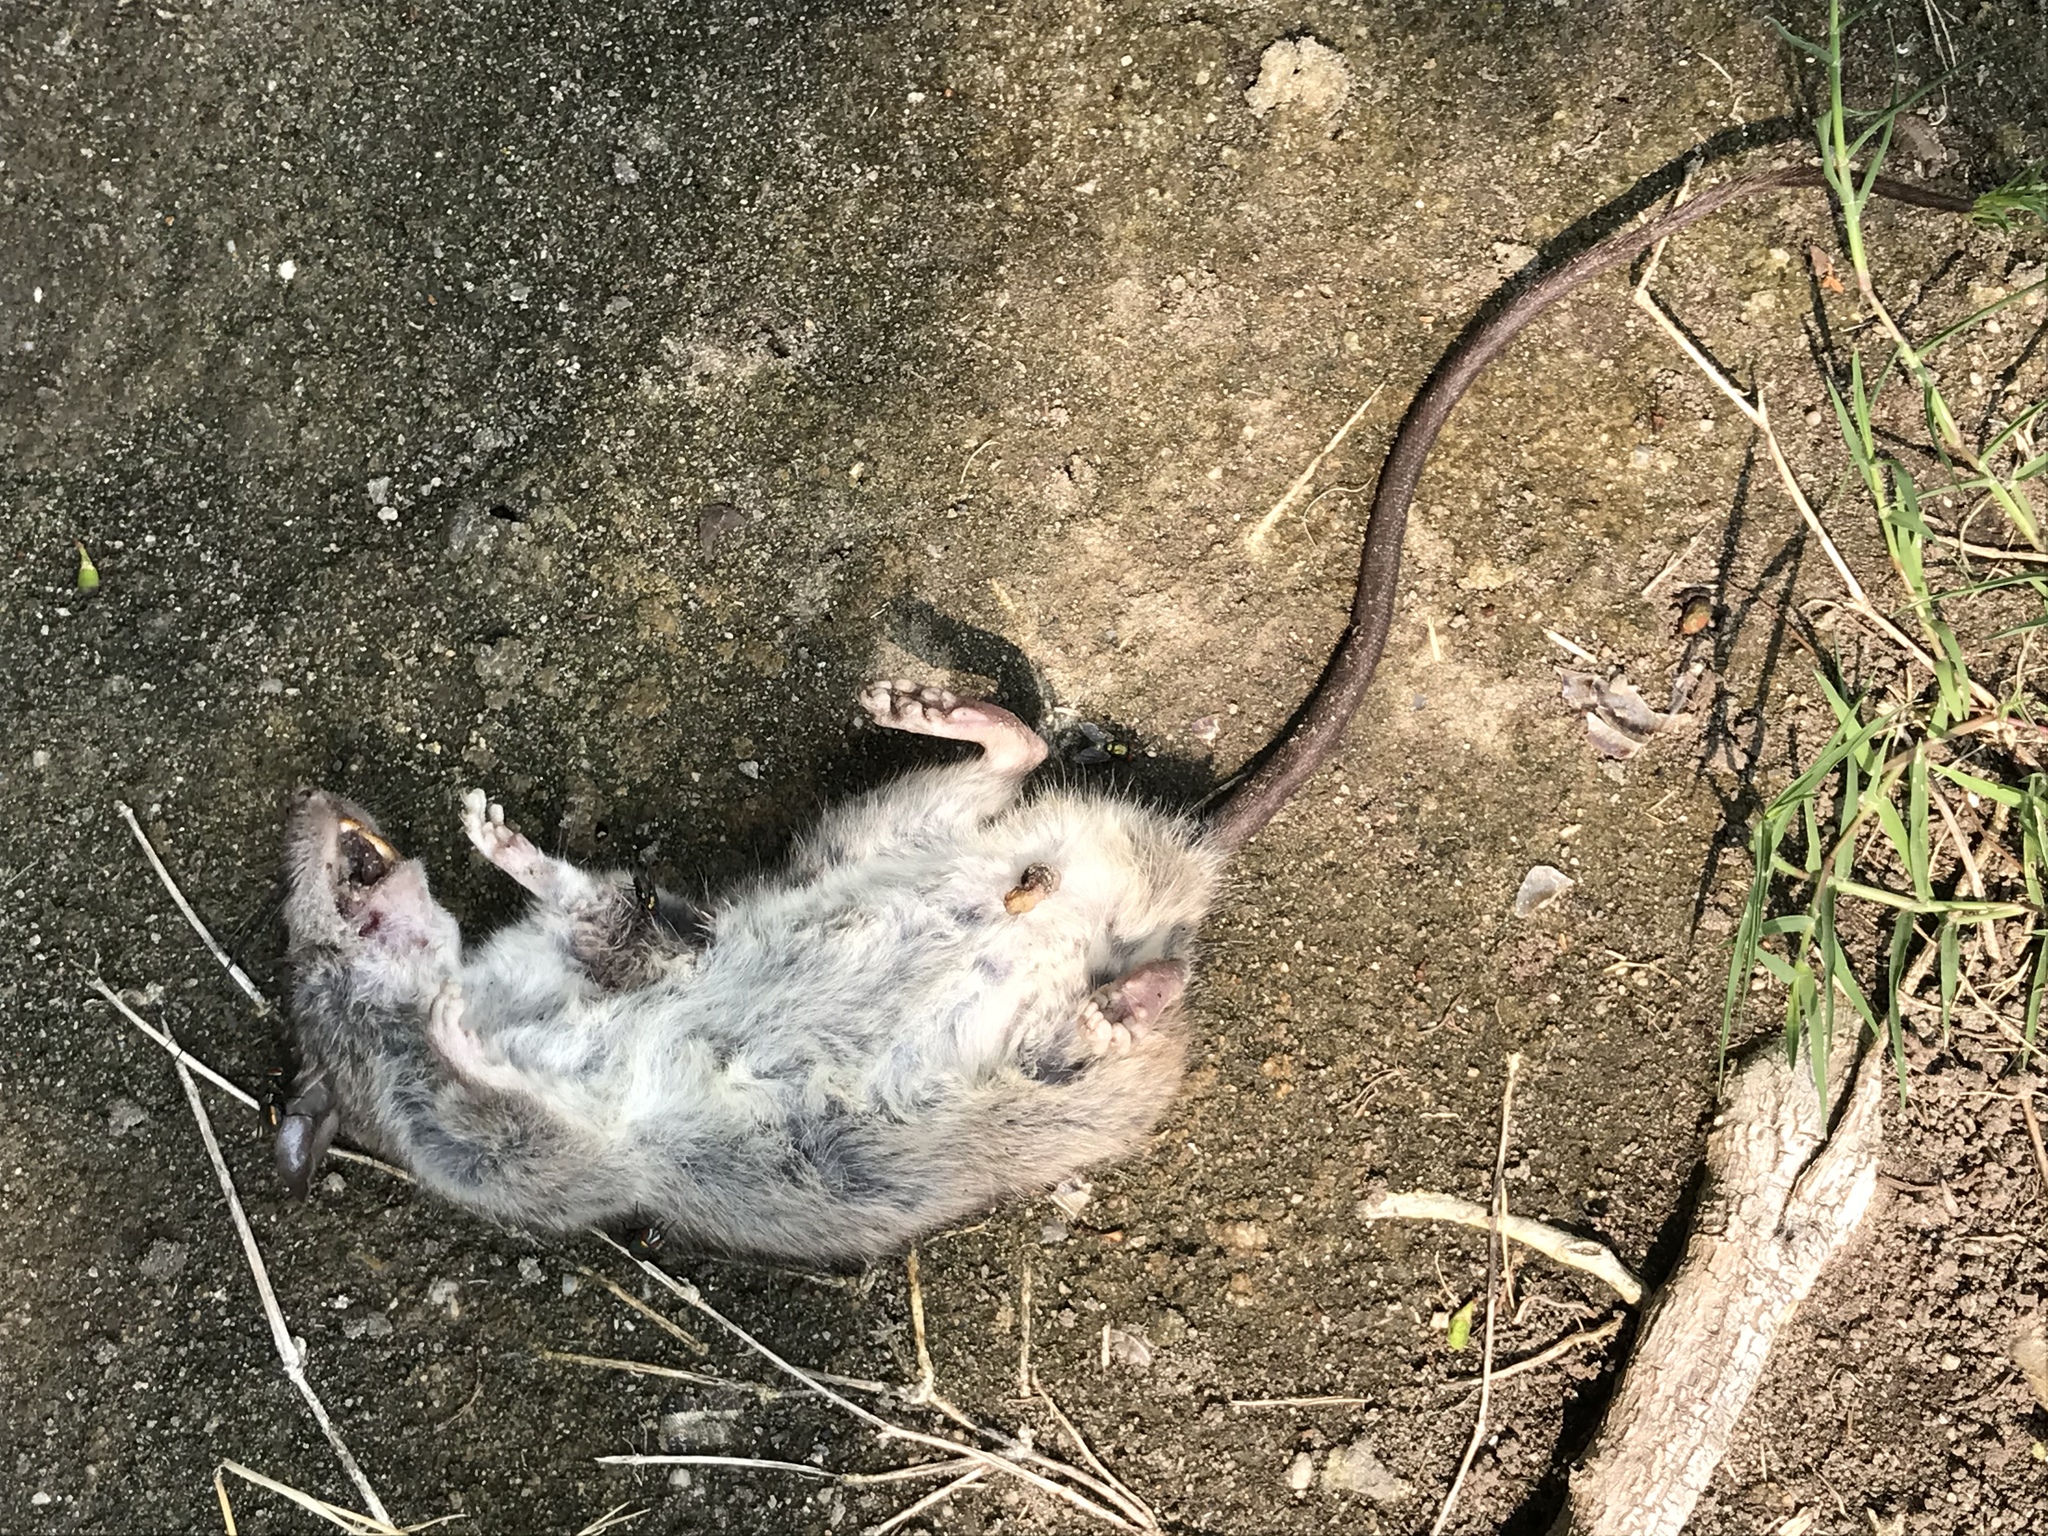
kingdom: Animalia
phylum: Chordata
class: Mammalia
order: Rodentia
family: Muridae
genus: Rattus
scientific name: Rattus rattus
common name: Black rat
